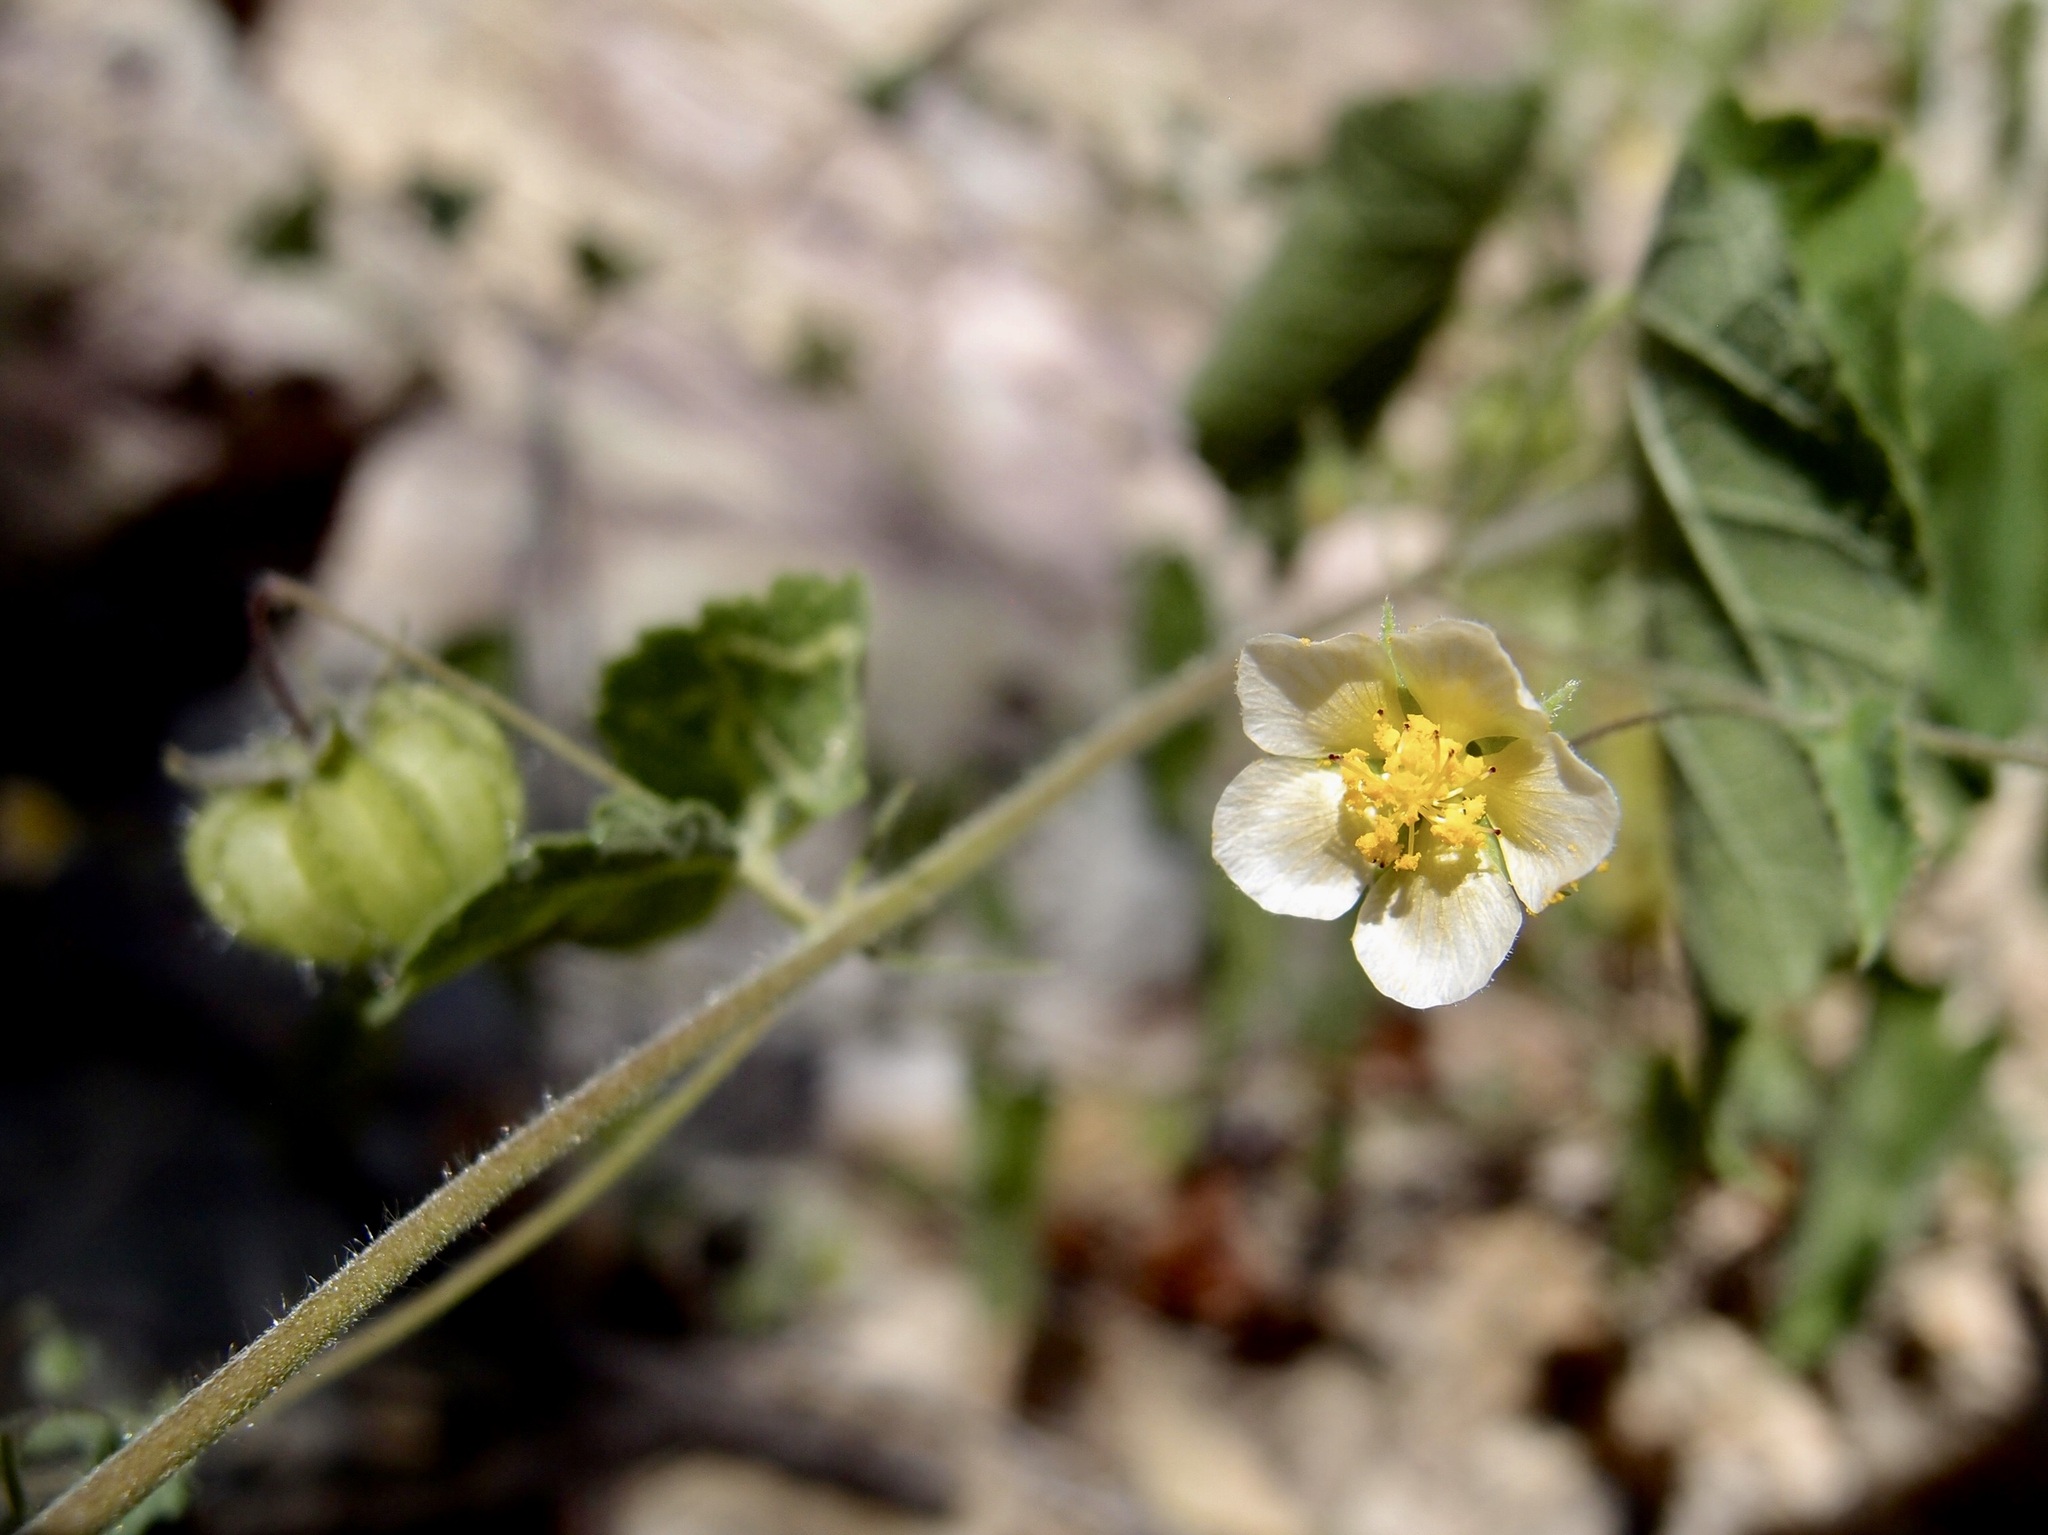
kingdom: Plantae
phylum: Tracheophyta
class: Magnoliopsida
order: Malvales
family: Malvaceae
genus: Herissantia
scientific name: Herissantia crispa
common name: Bladdermallow
